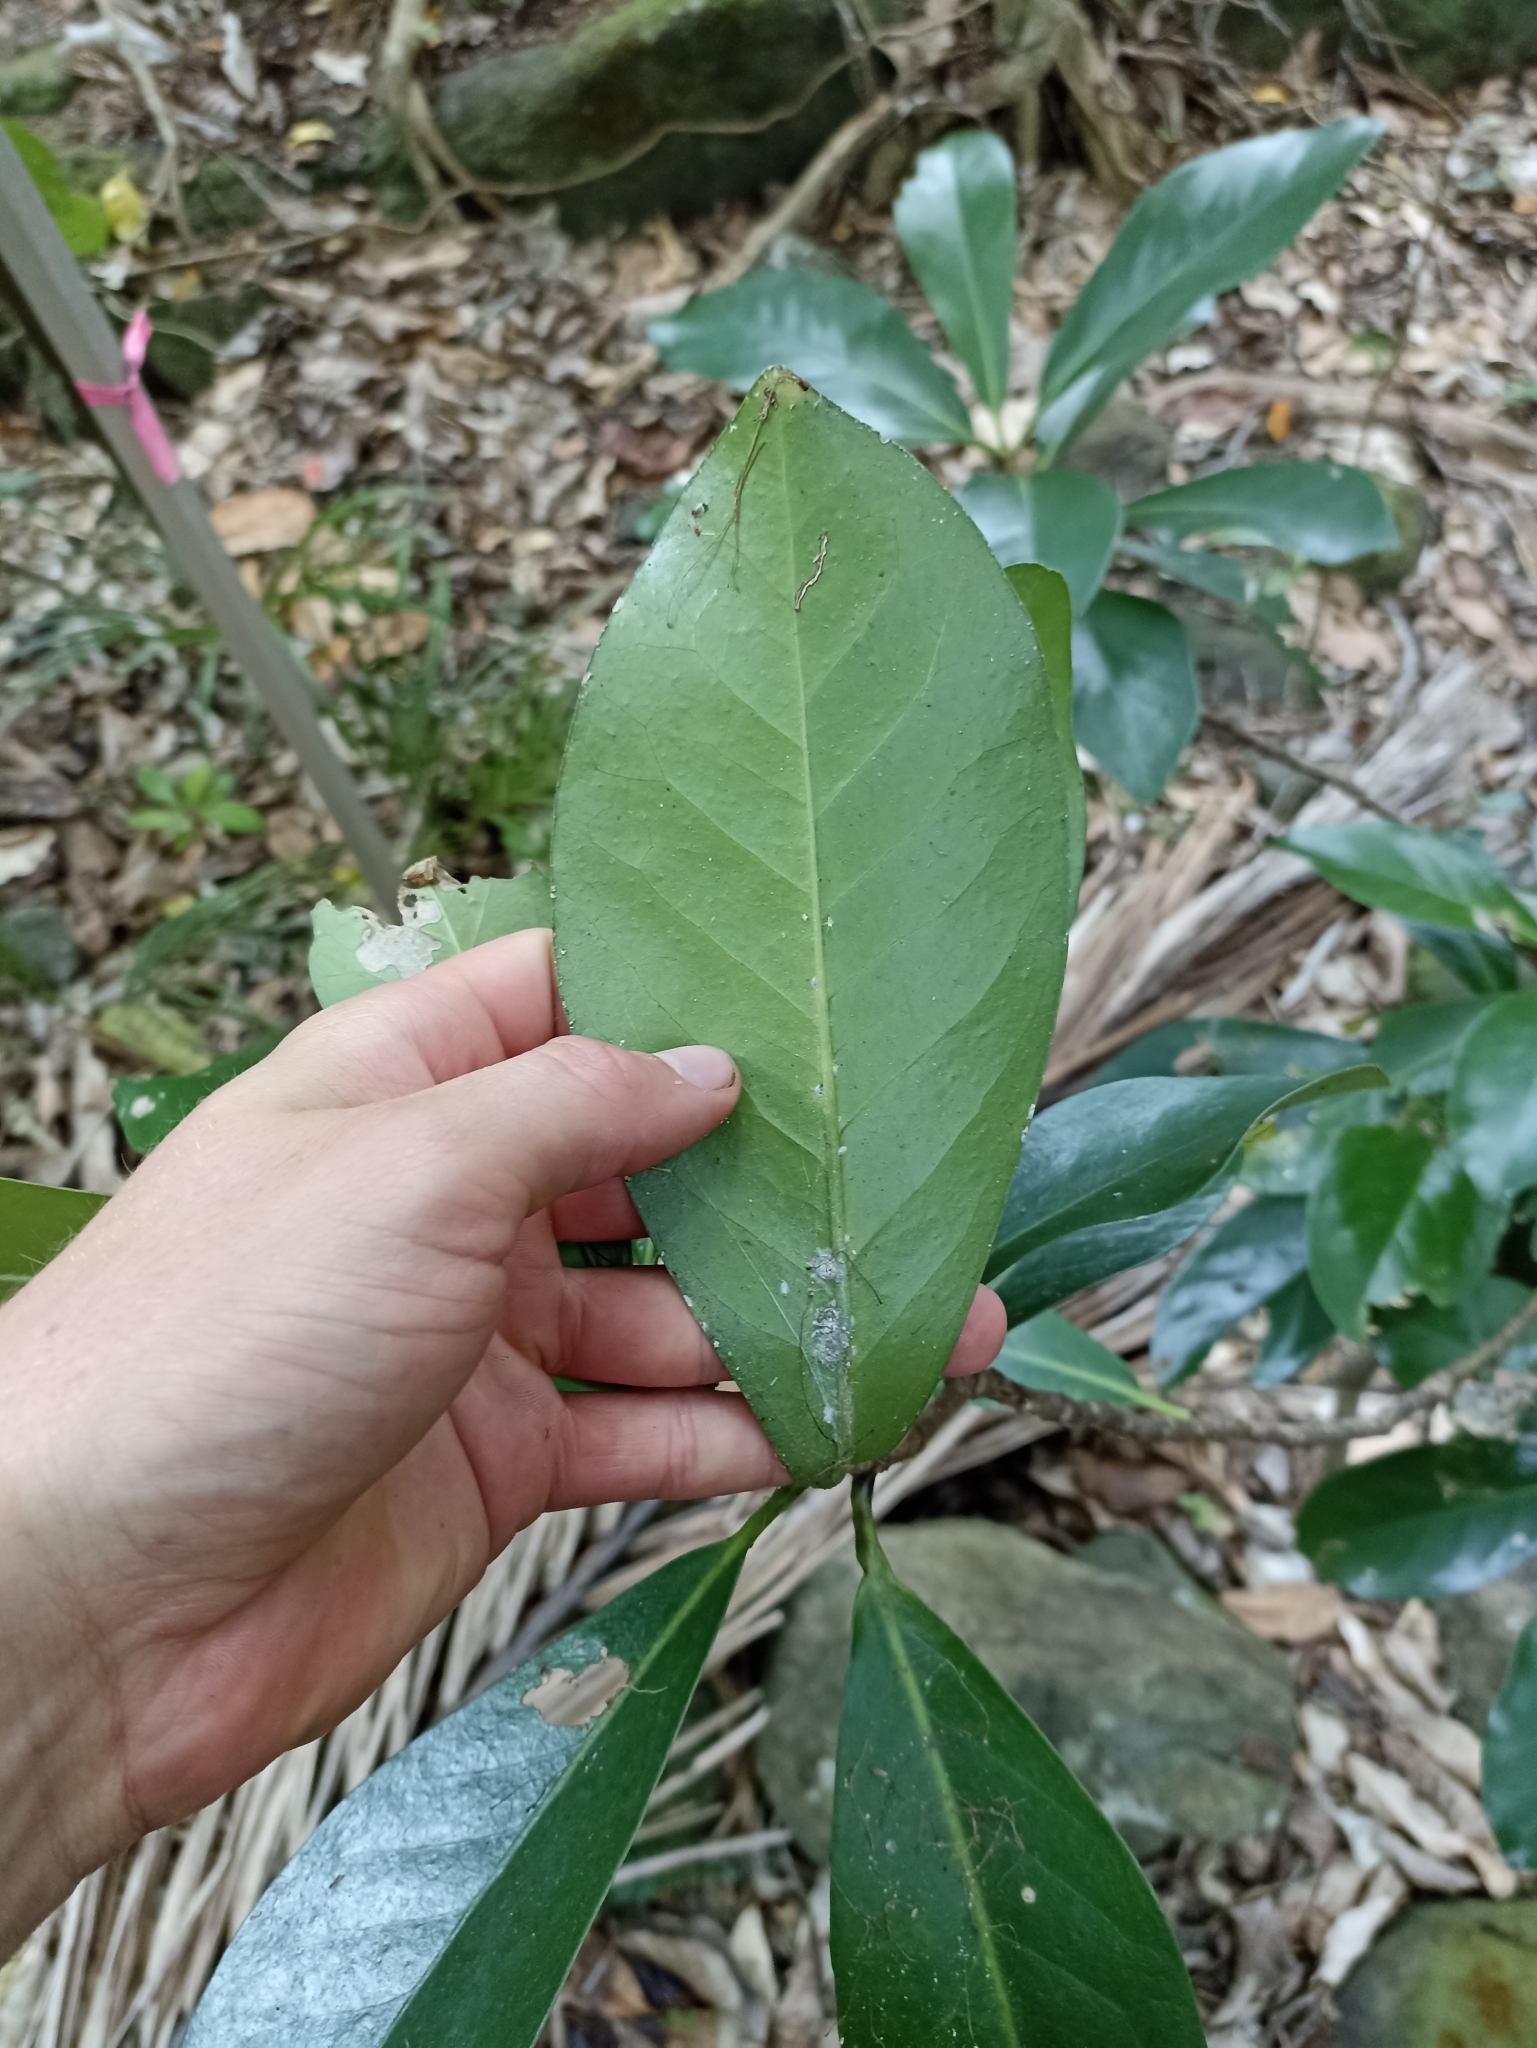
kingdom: Plantae
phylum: Tracheophyta
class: Magnoliopsida
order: Cucurbitales
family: Corynocarpaceae
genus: Corynocarpus
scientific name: Corynocarpus laevigatus
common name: New zealand laurel
